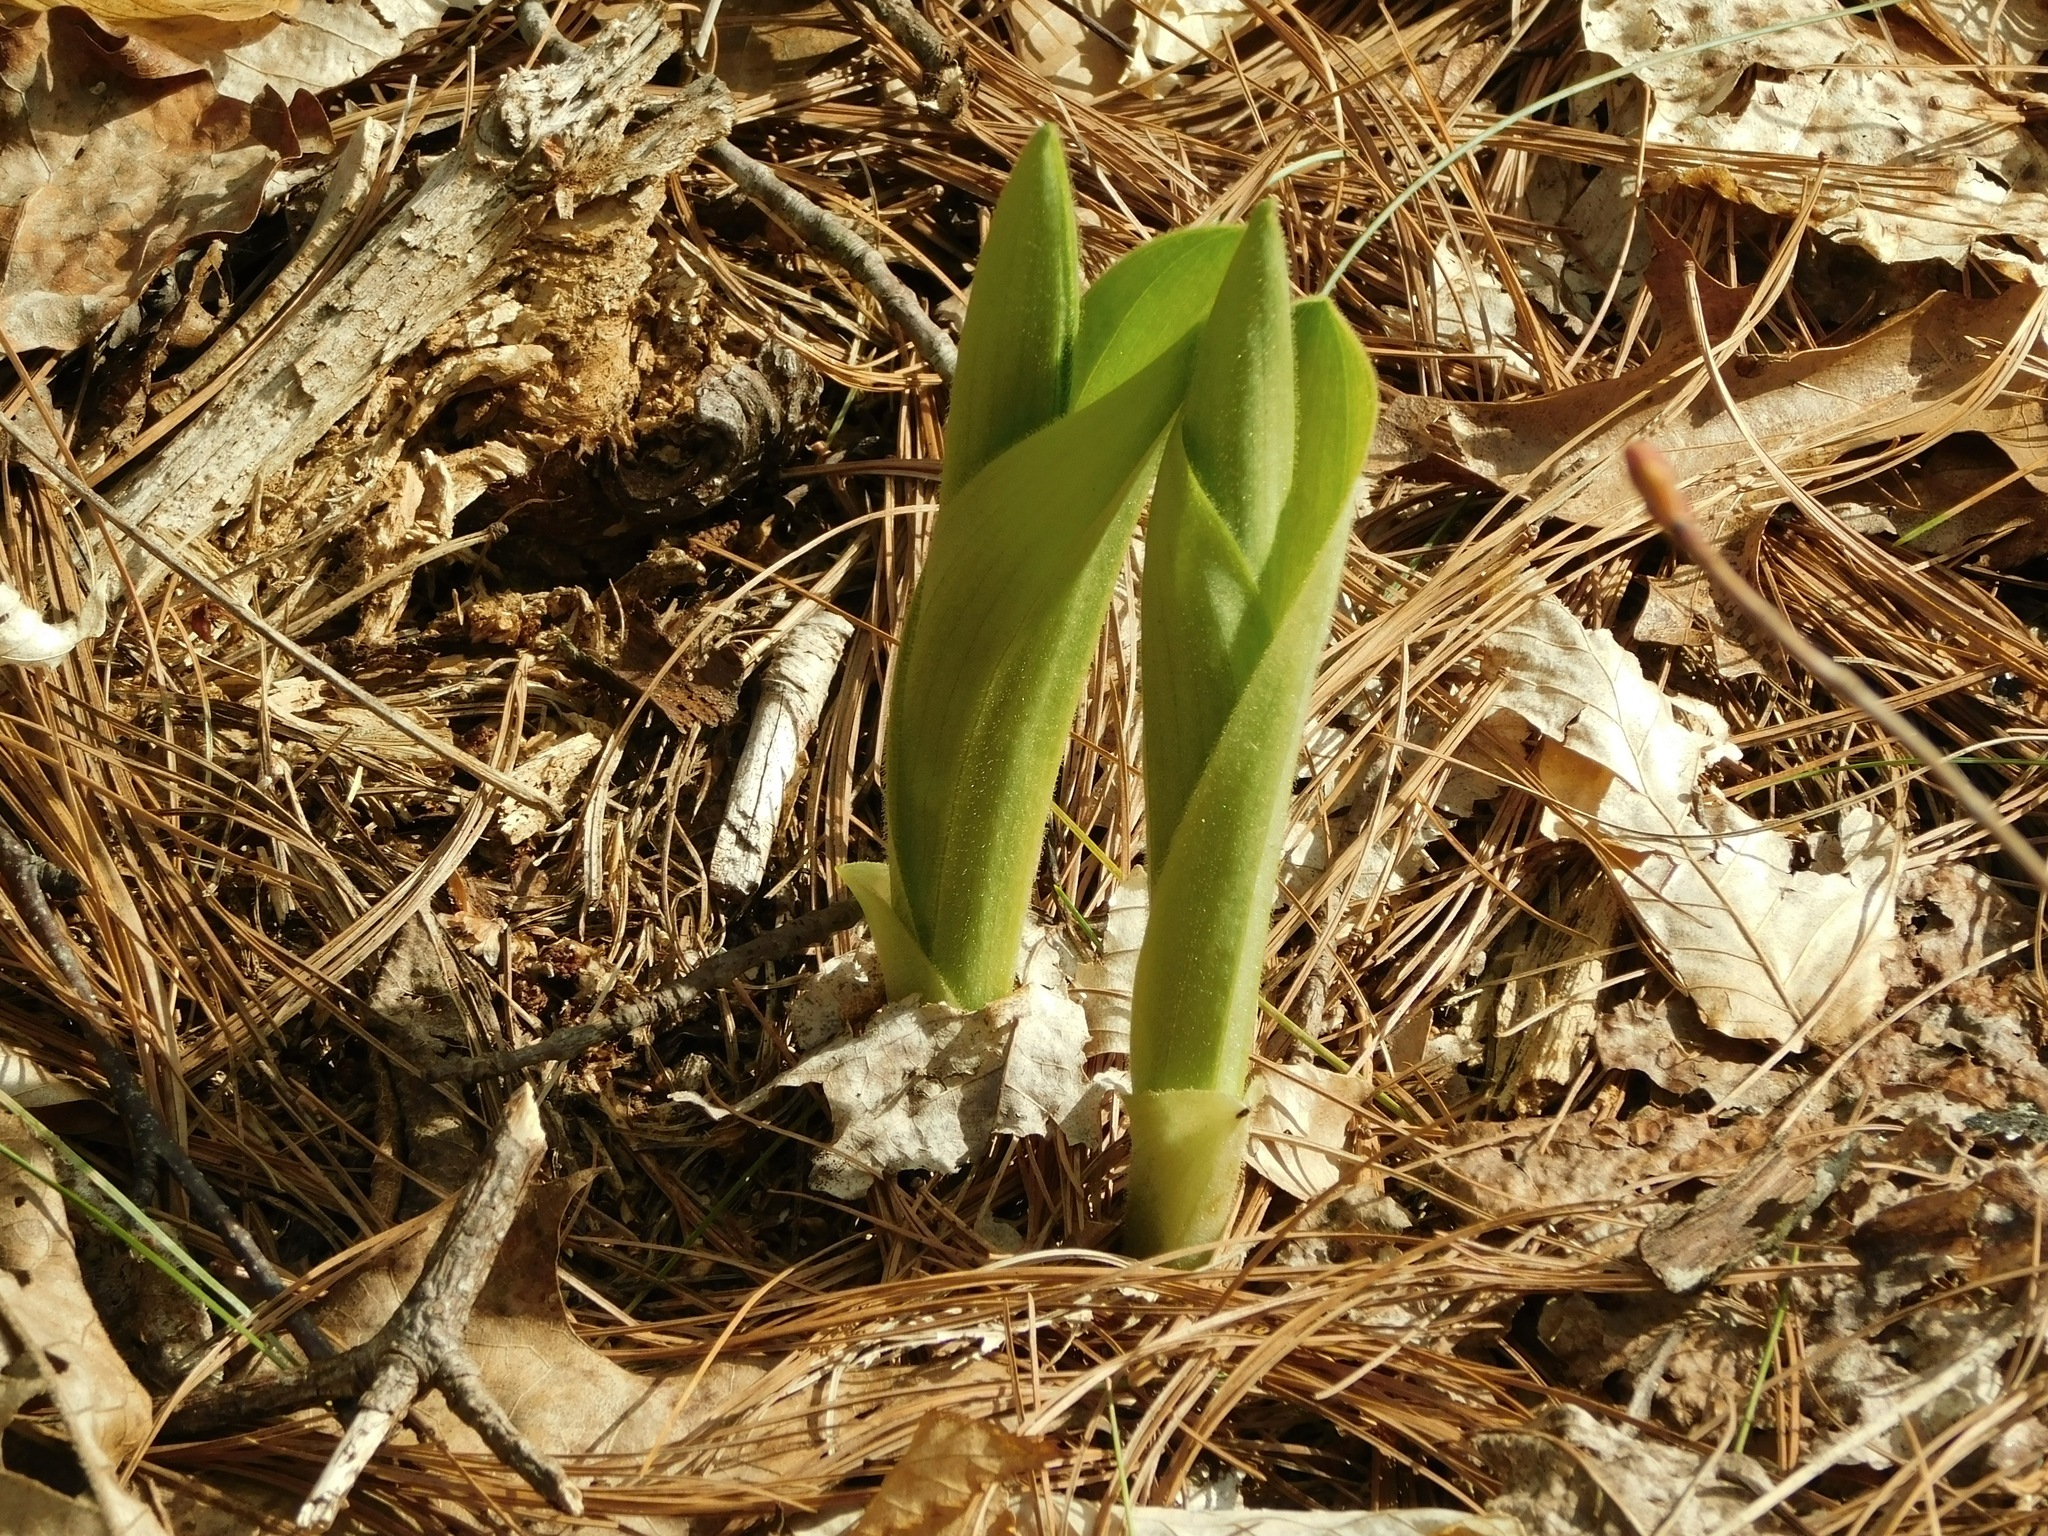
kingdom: Plantae
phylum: Tracheophyta
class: Liliopsida
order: Asparagales
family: Orchidaceae
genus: Cypripedium
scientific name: Cypripedium acaule
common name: Pink lady's-slipper
